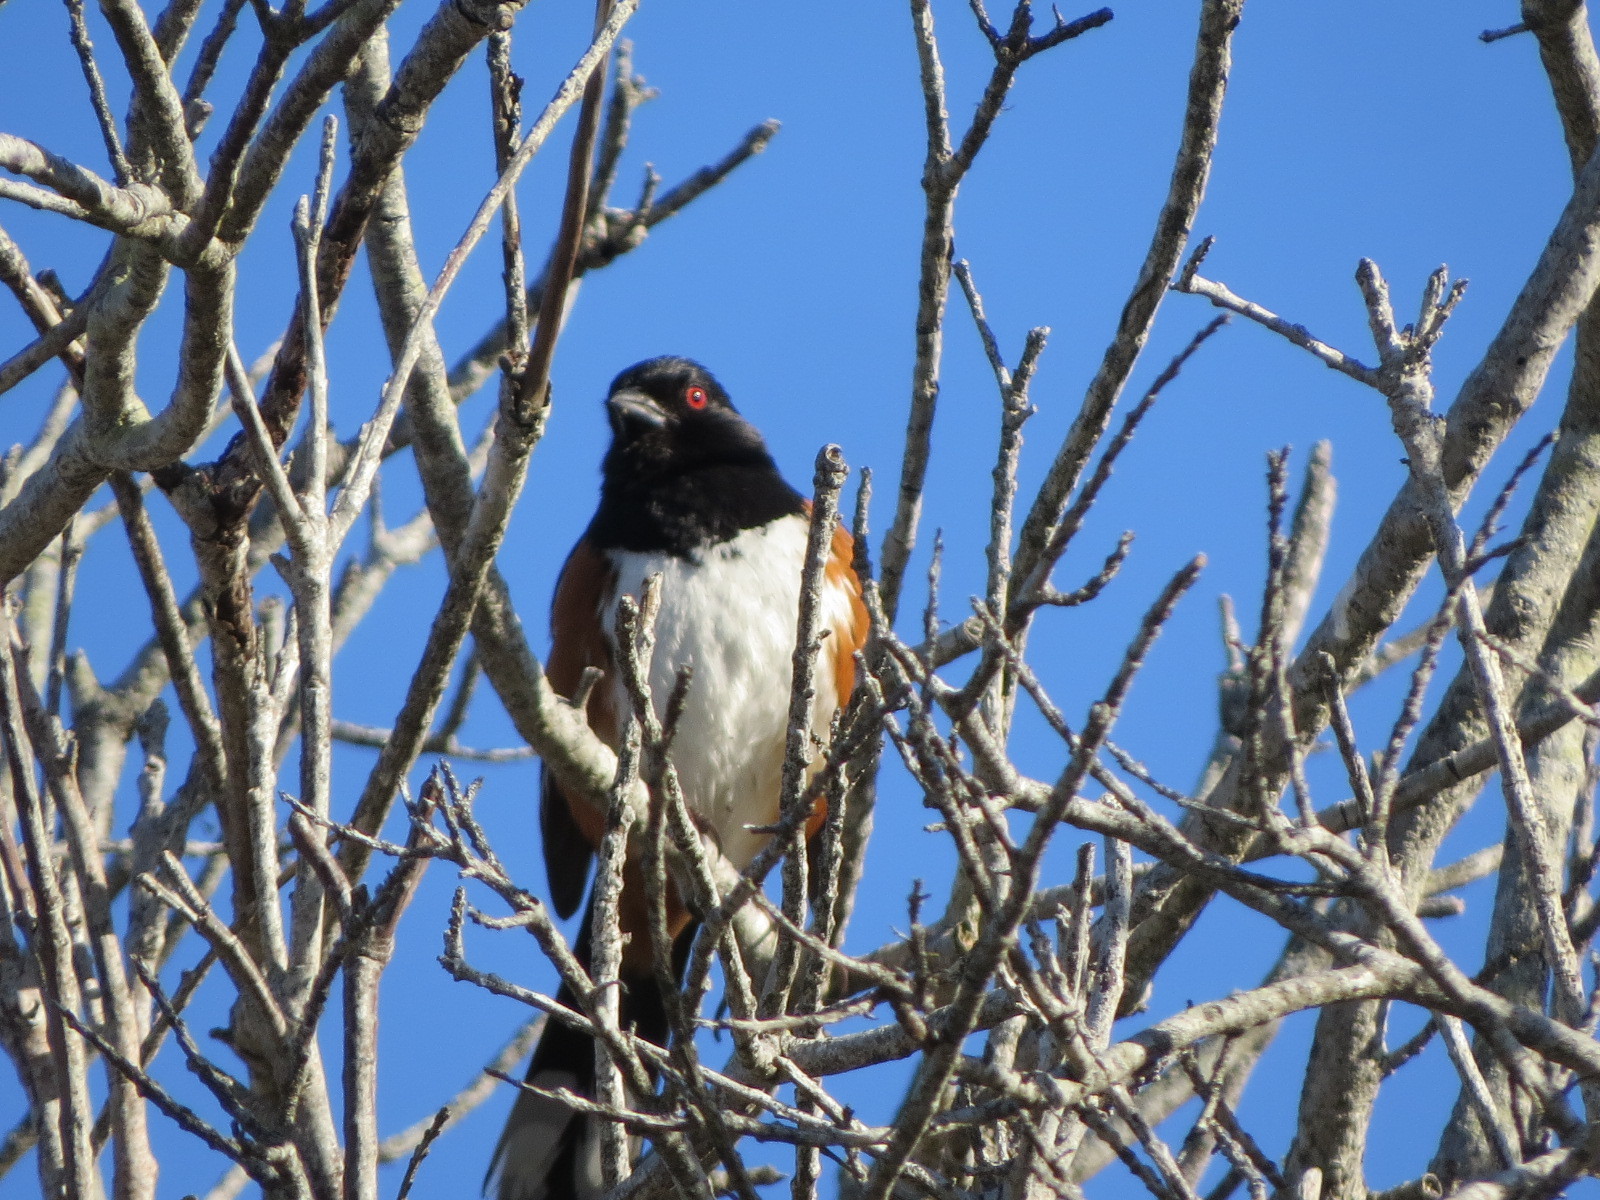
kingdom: Animalia
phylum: Chordata
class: Aves
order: Passeriformes
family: Passerellidae
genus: Pipilo
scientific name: Pipilo maculatus
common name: Spotted towhee
